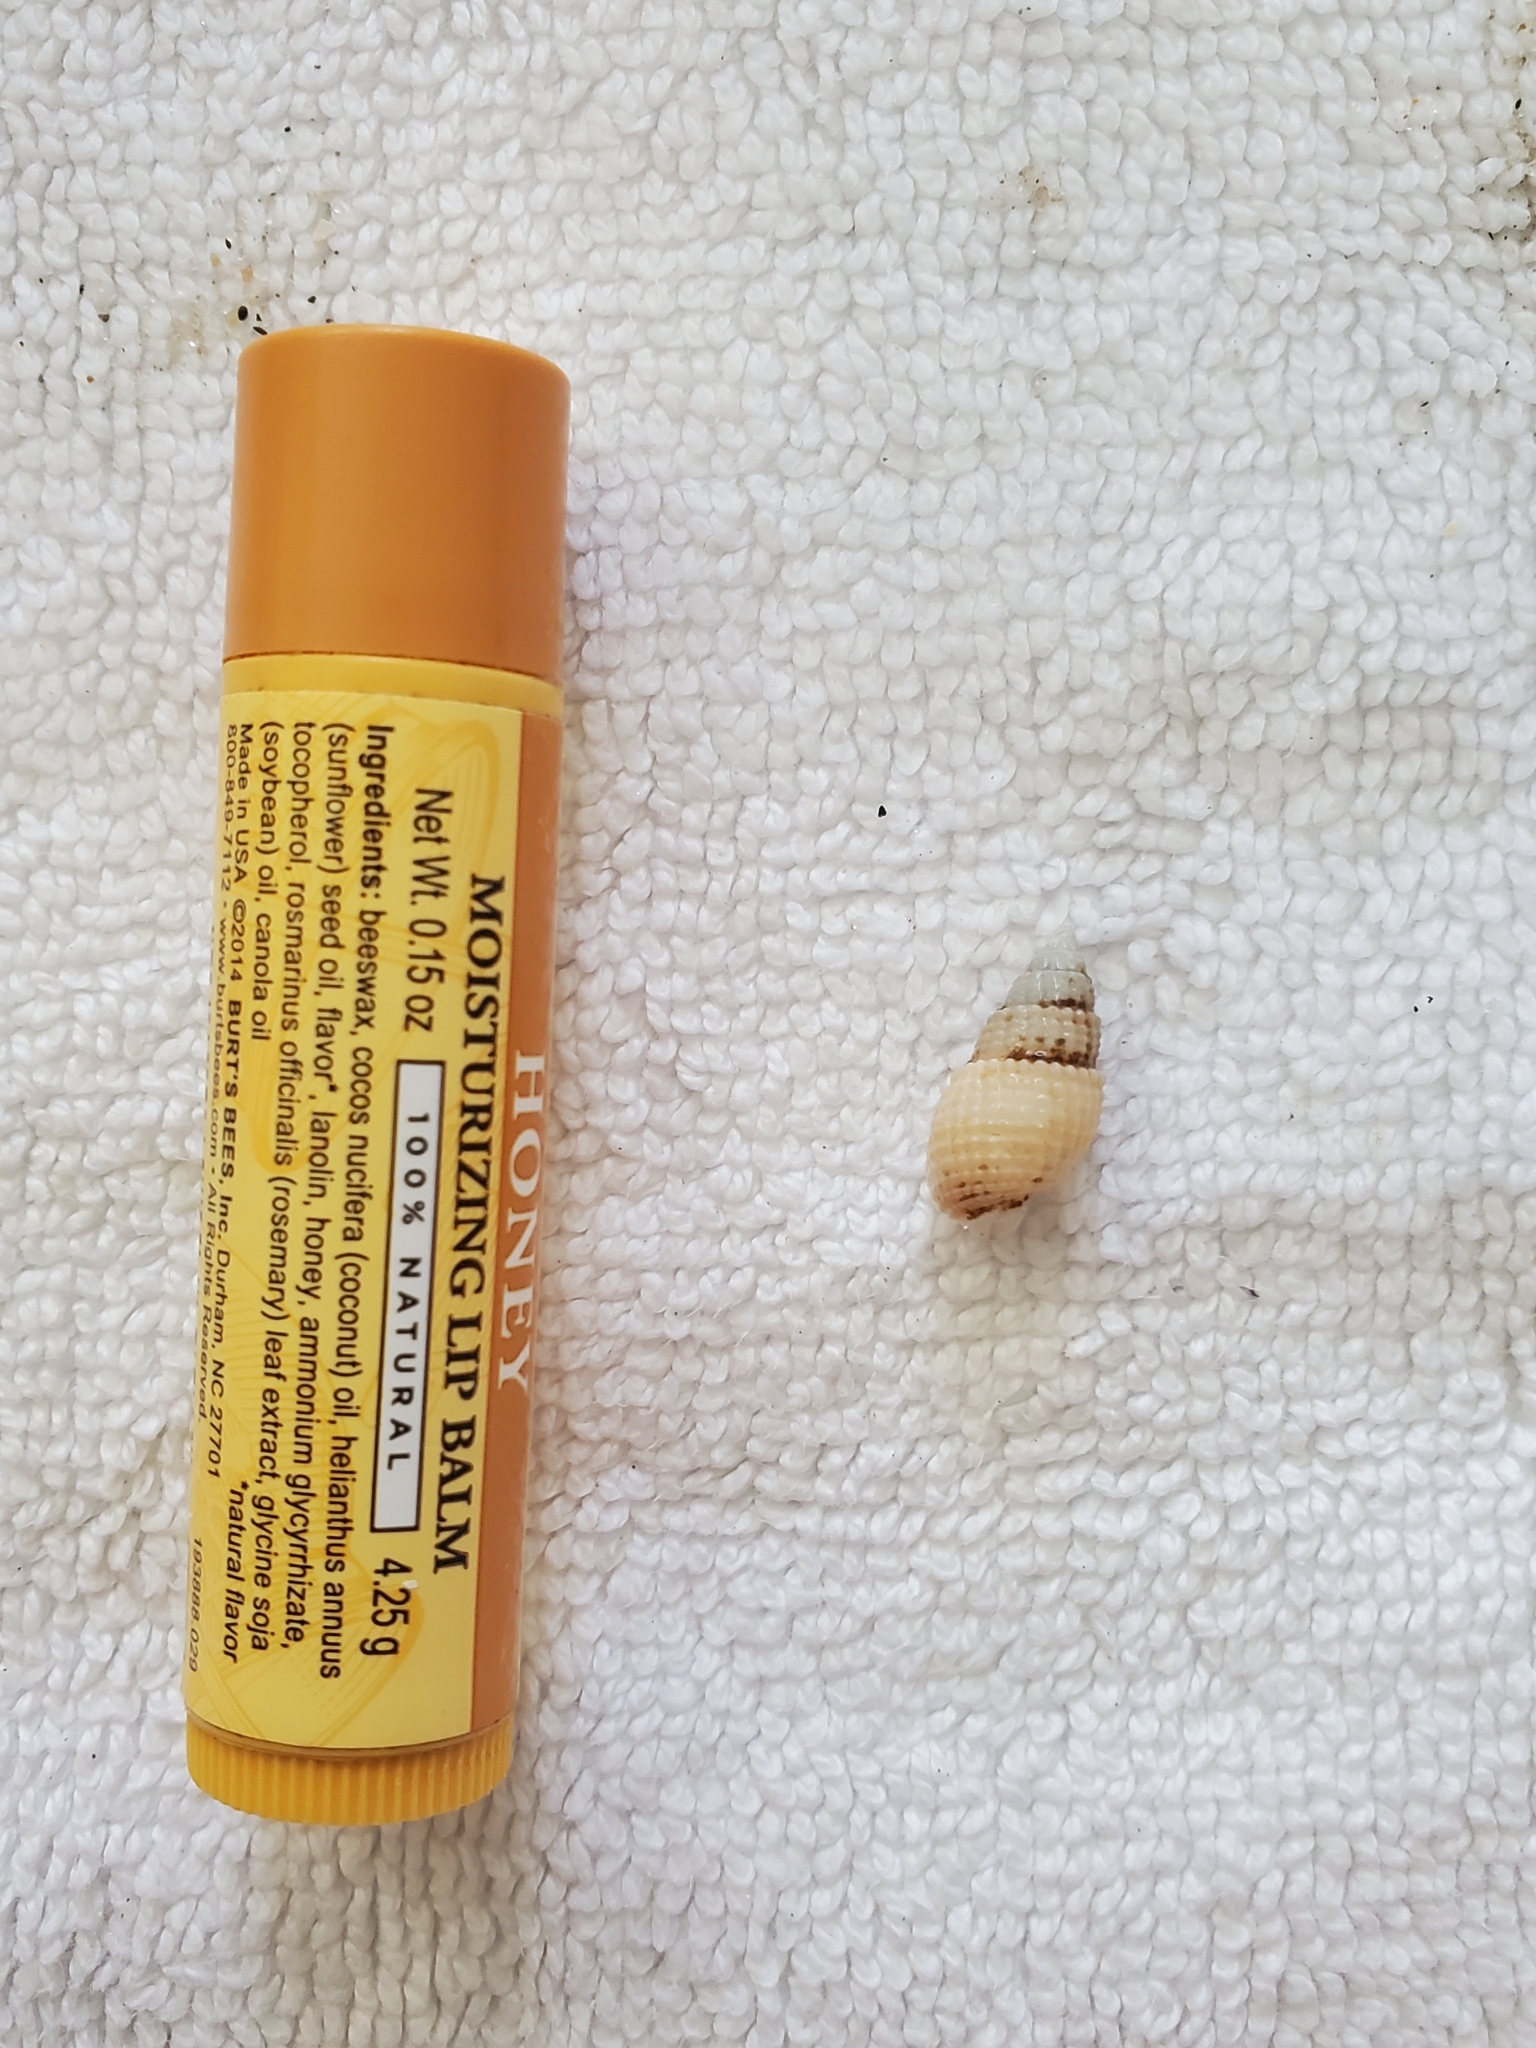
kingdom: Animalia
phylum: Mollusca
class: Gastropoda
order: Neogastropoda
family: Nassariidae
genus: Ilyanassa
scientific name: Ilyanassa trivittata
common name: Three-line mudsnail
